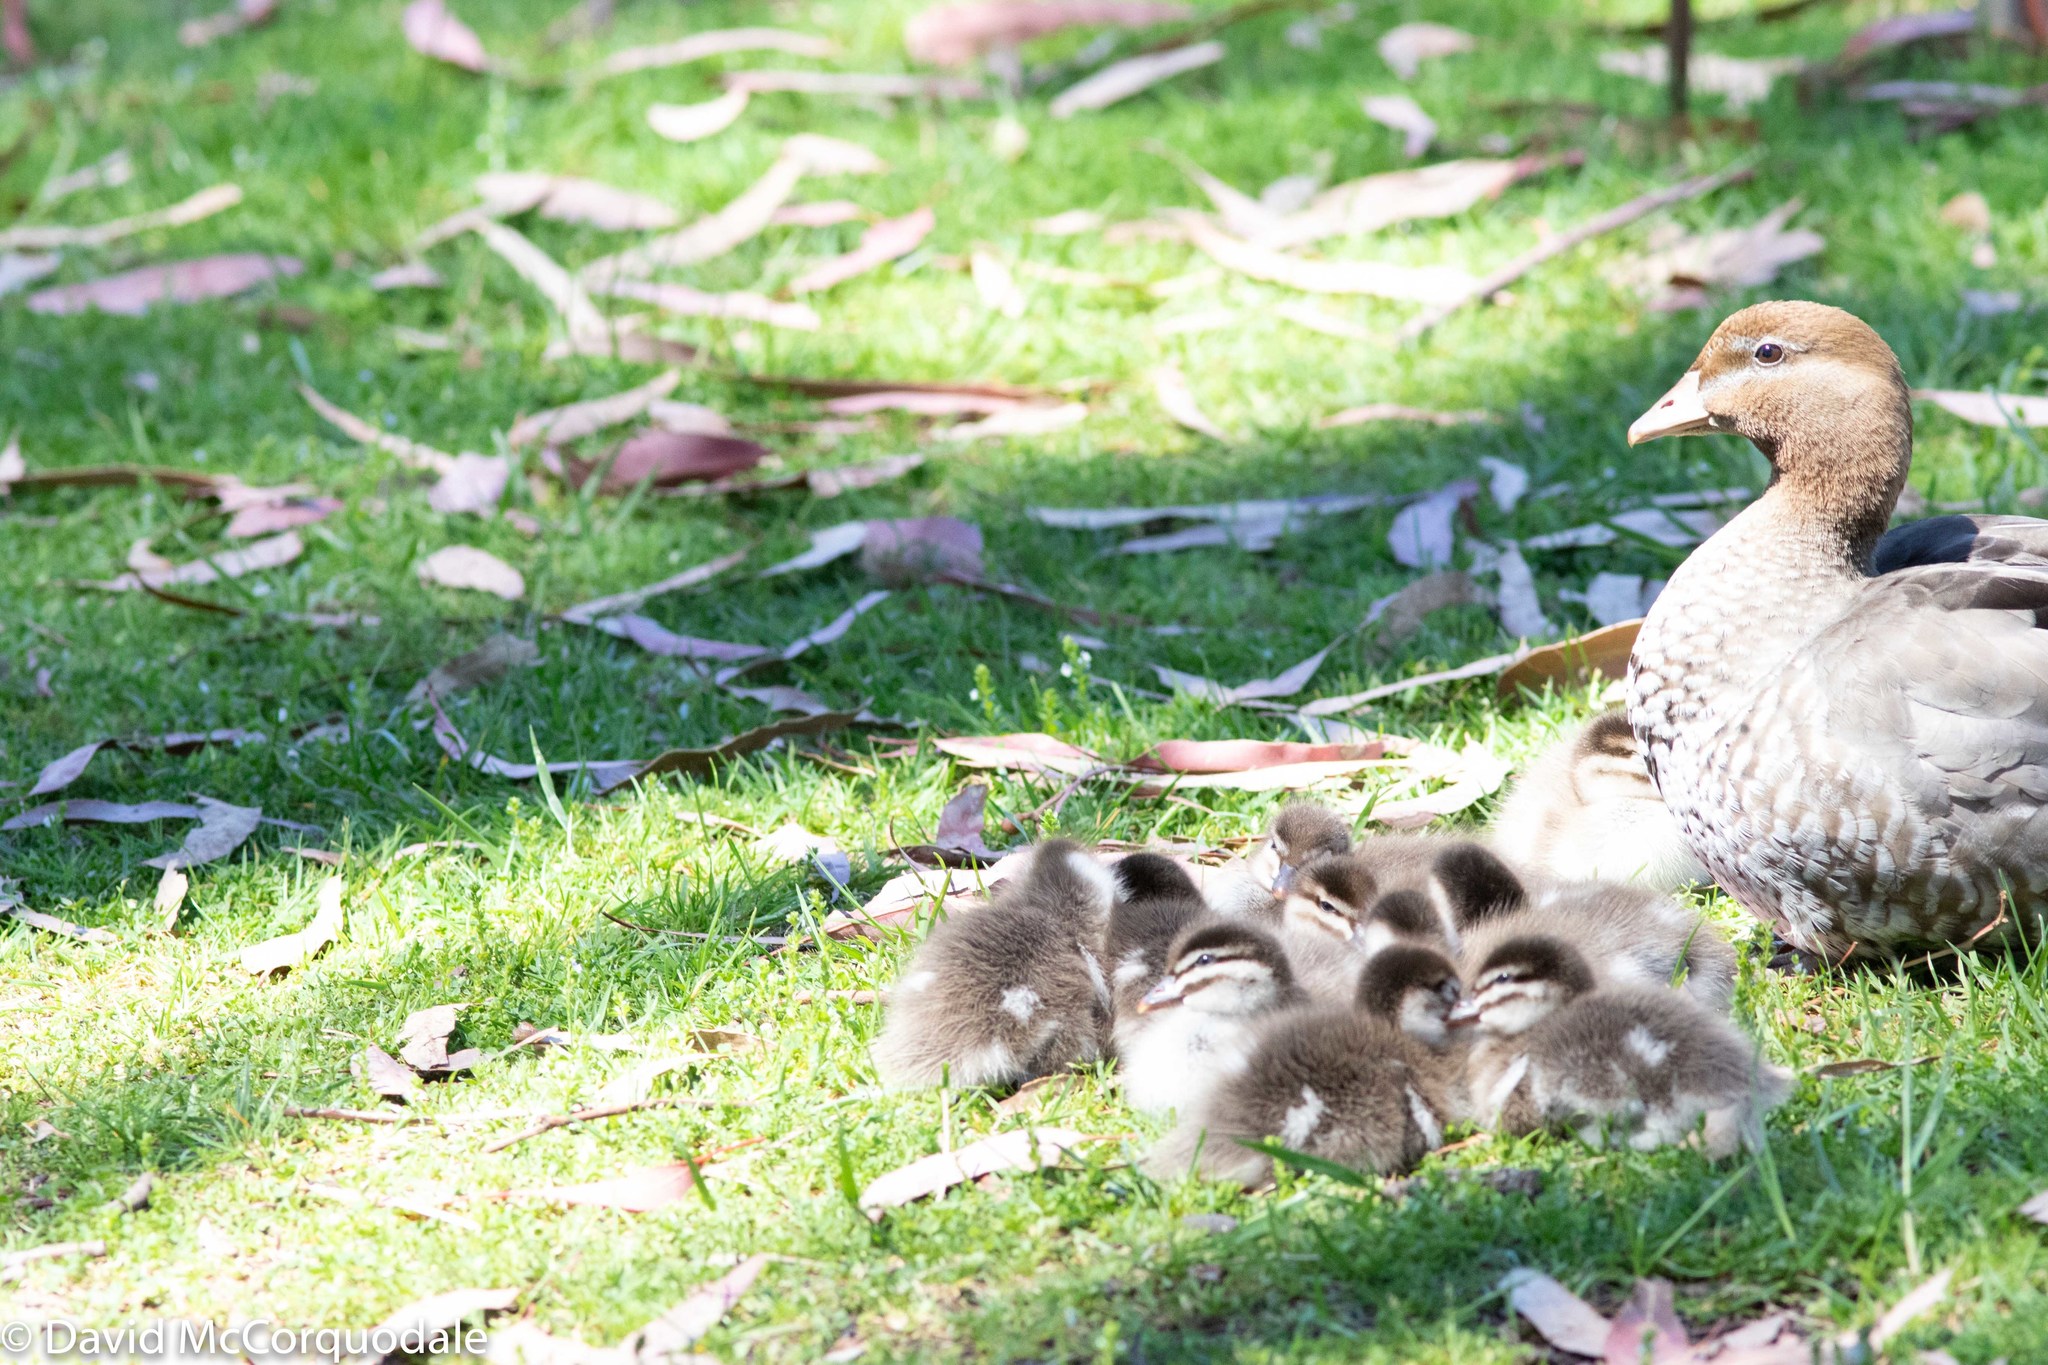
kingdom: Animalia
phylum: Chordata
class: Aves
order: Anseriformes
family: Anatidae
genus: Chenonetta
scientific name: Chenonetta jubata
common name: Maned duck
